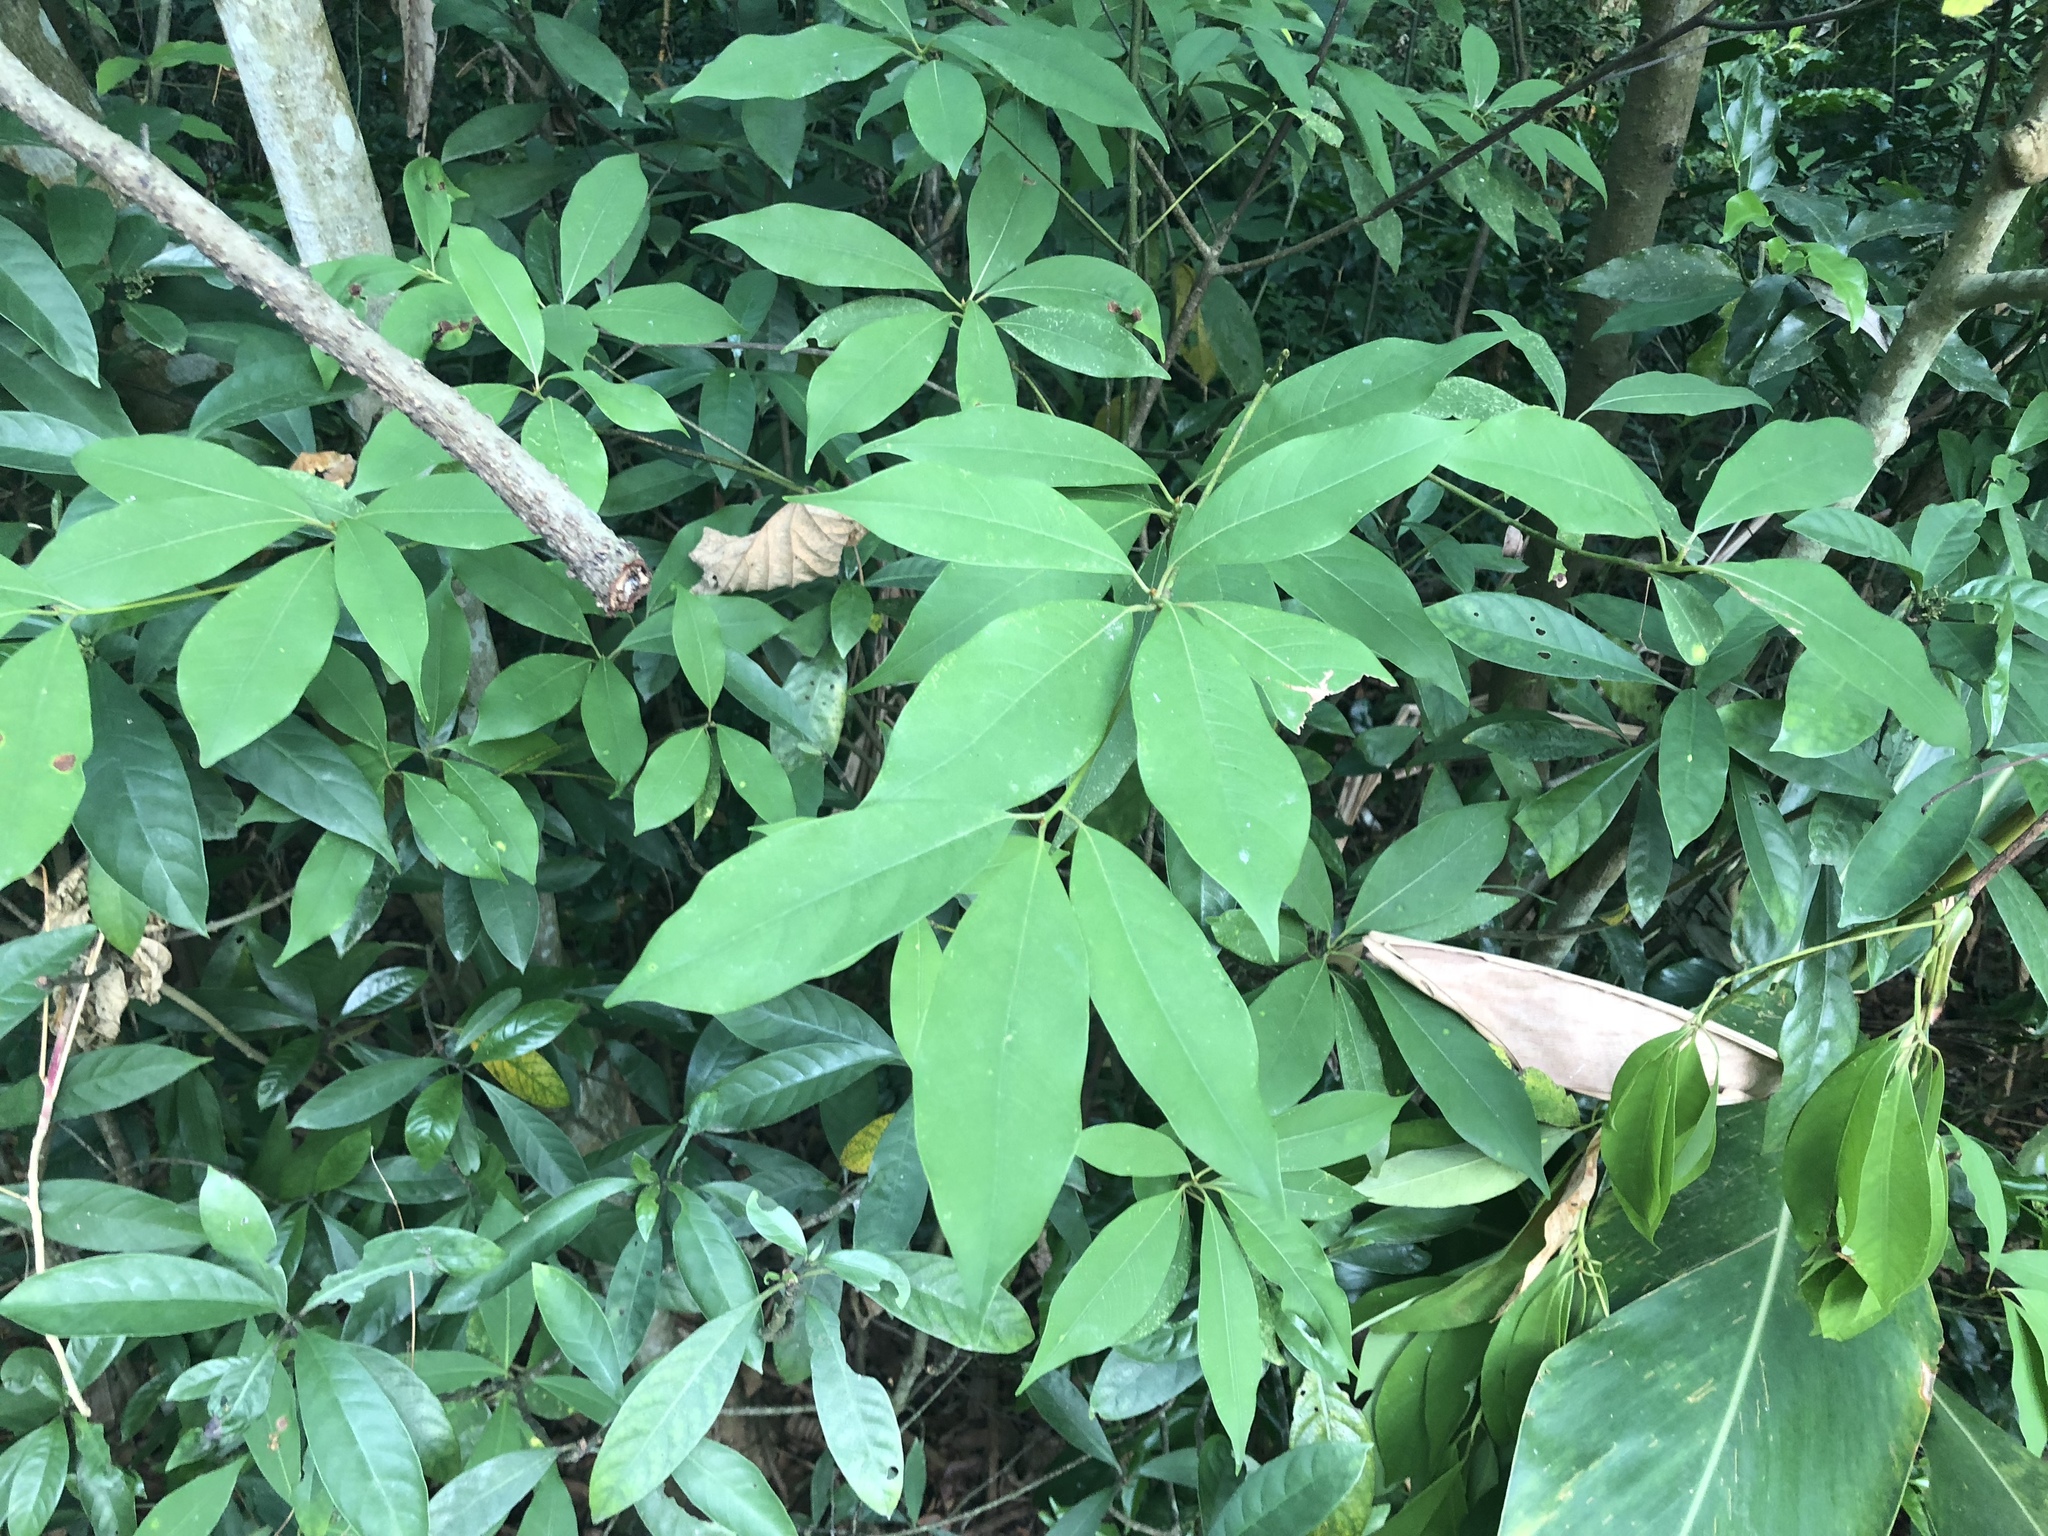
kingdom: Plantae
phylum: Tracheophyta
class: Magnoliopsida
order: Laurales
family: Lauraceae
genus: Machilus
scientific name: Machilus zuihoensis
